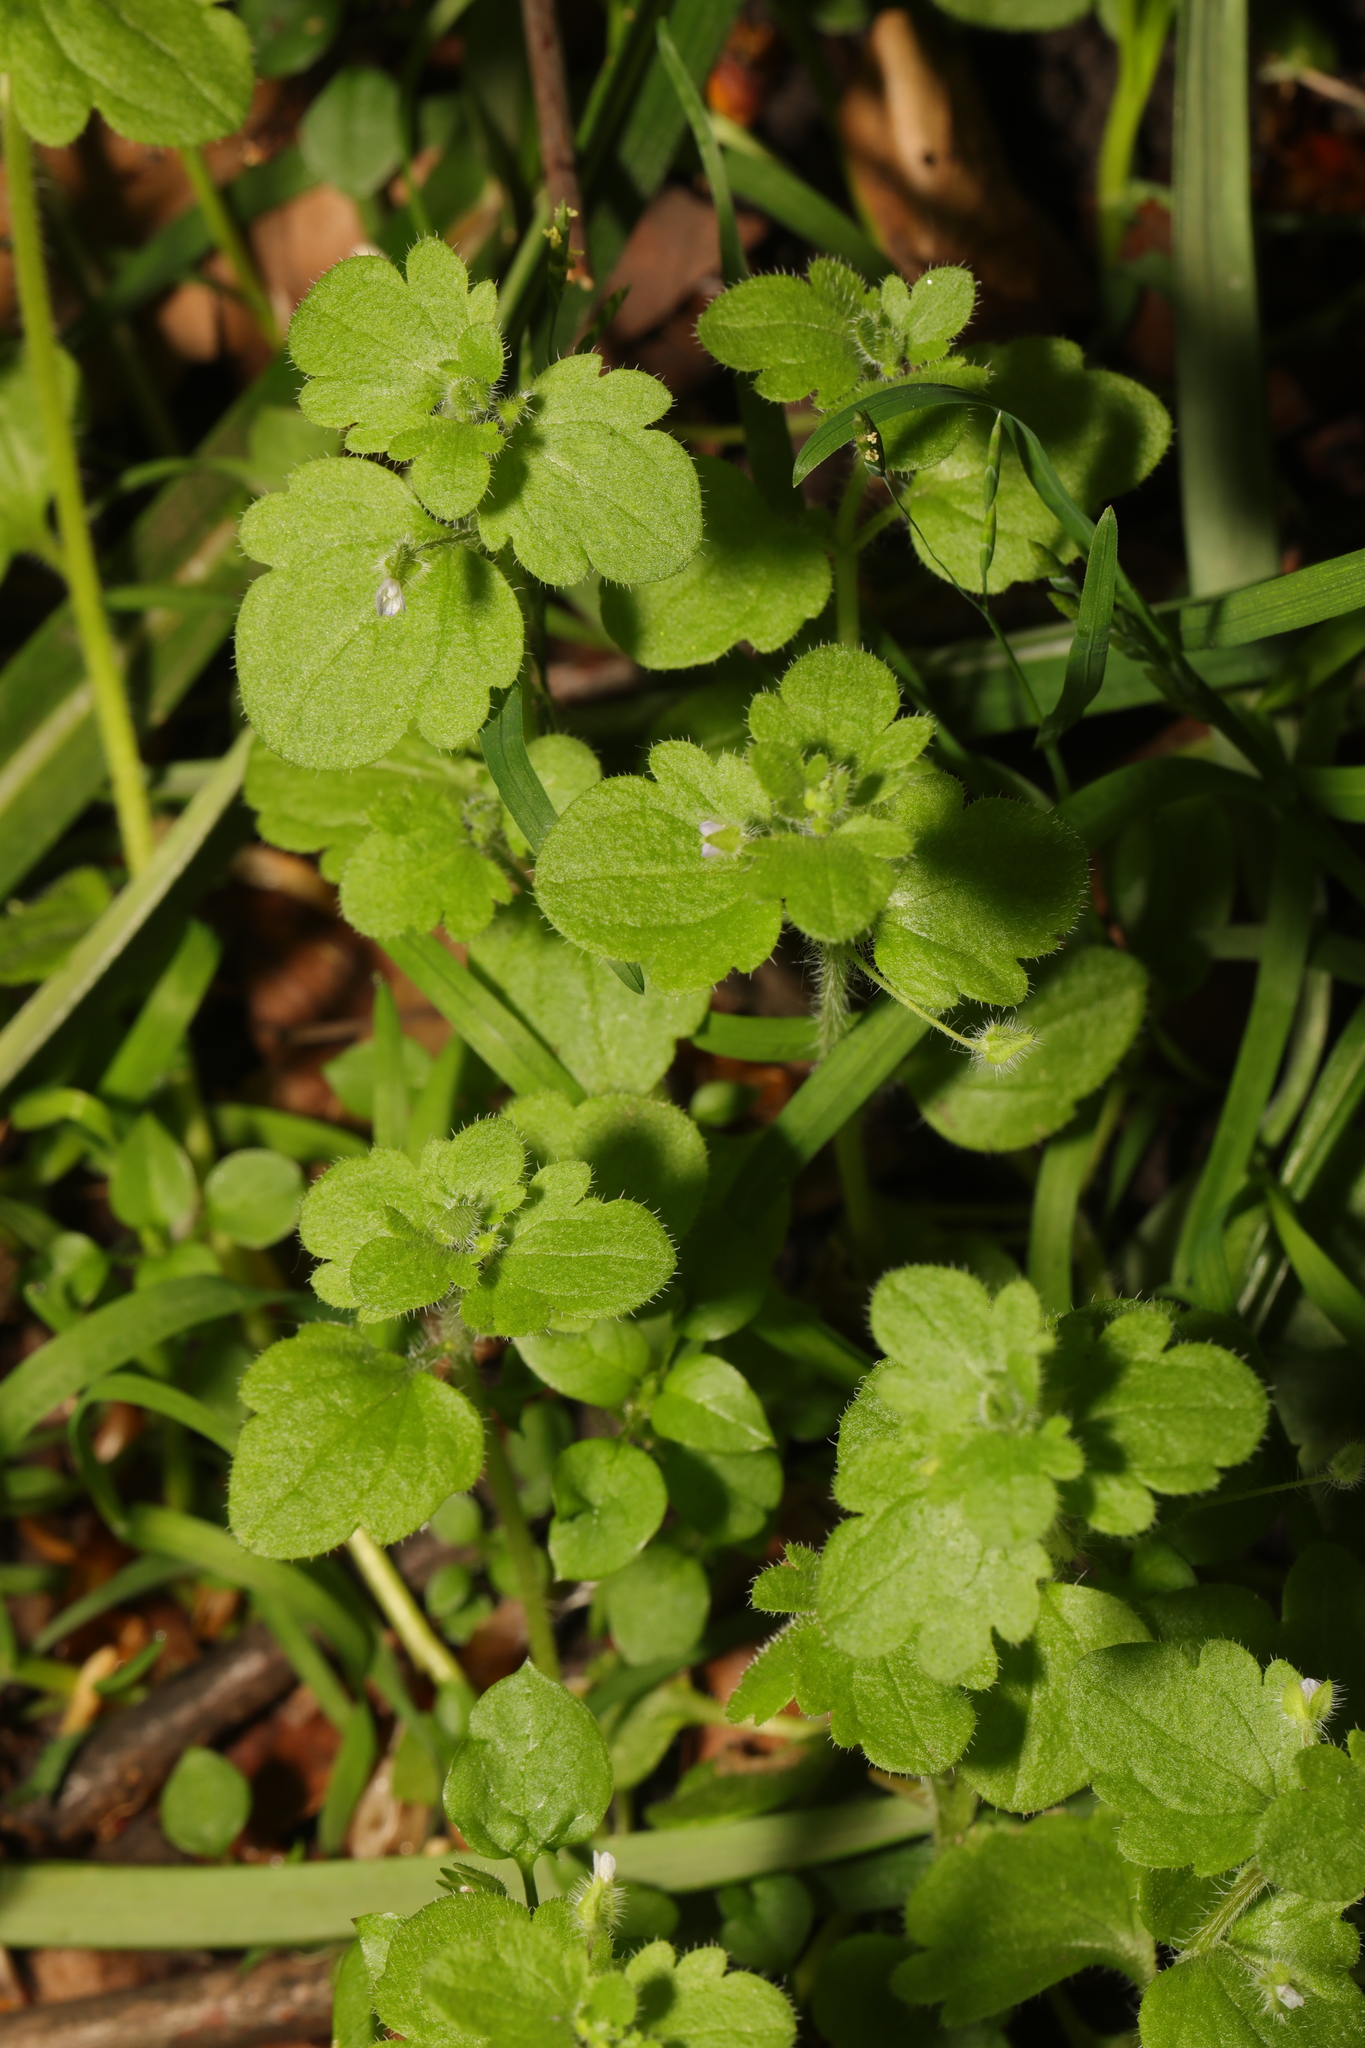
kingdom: Plantae
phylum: Tracheophyta
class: Magnoliopsida
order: Lamiales
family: Plantaginaceae
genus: Veronica
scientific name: Veronica sublobata
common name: False ivy-leaved speedwell
